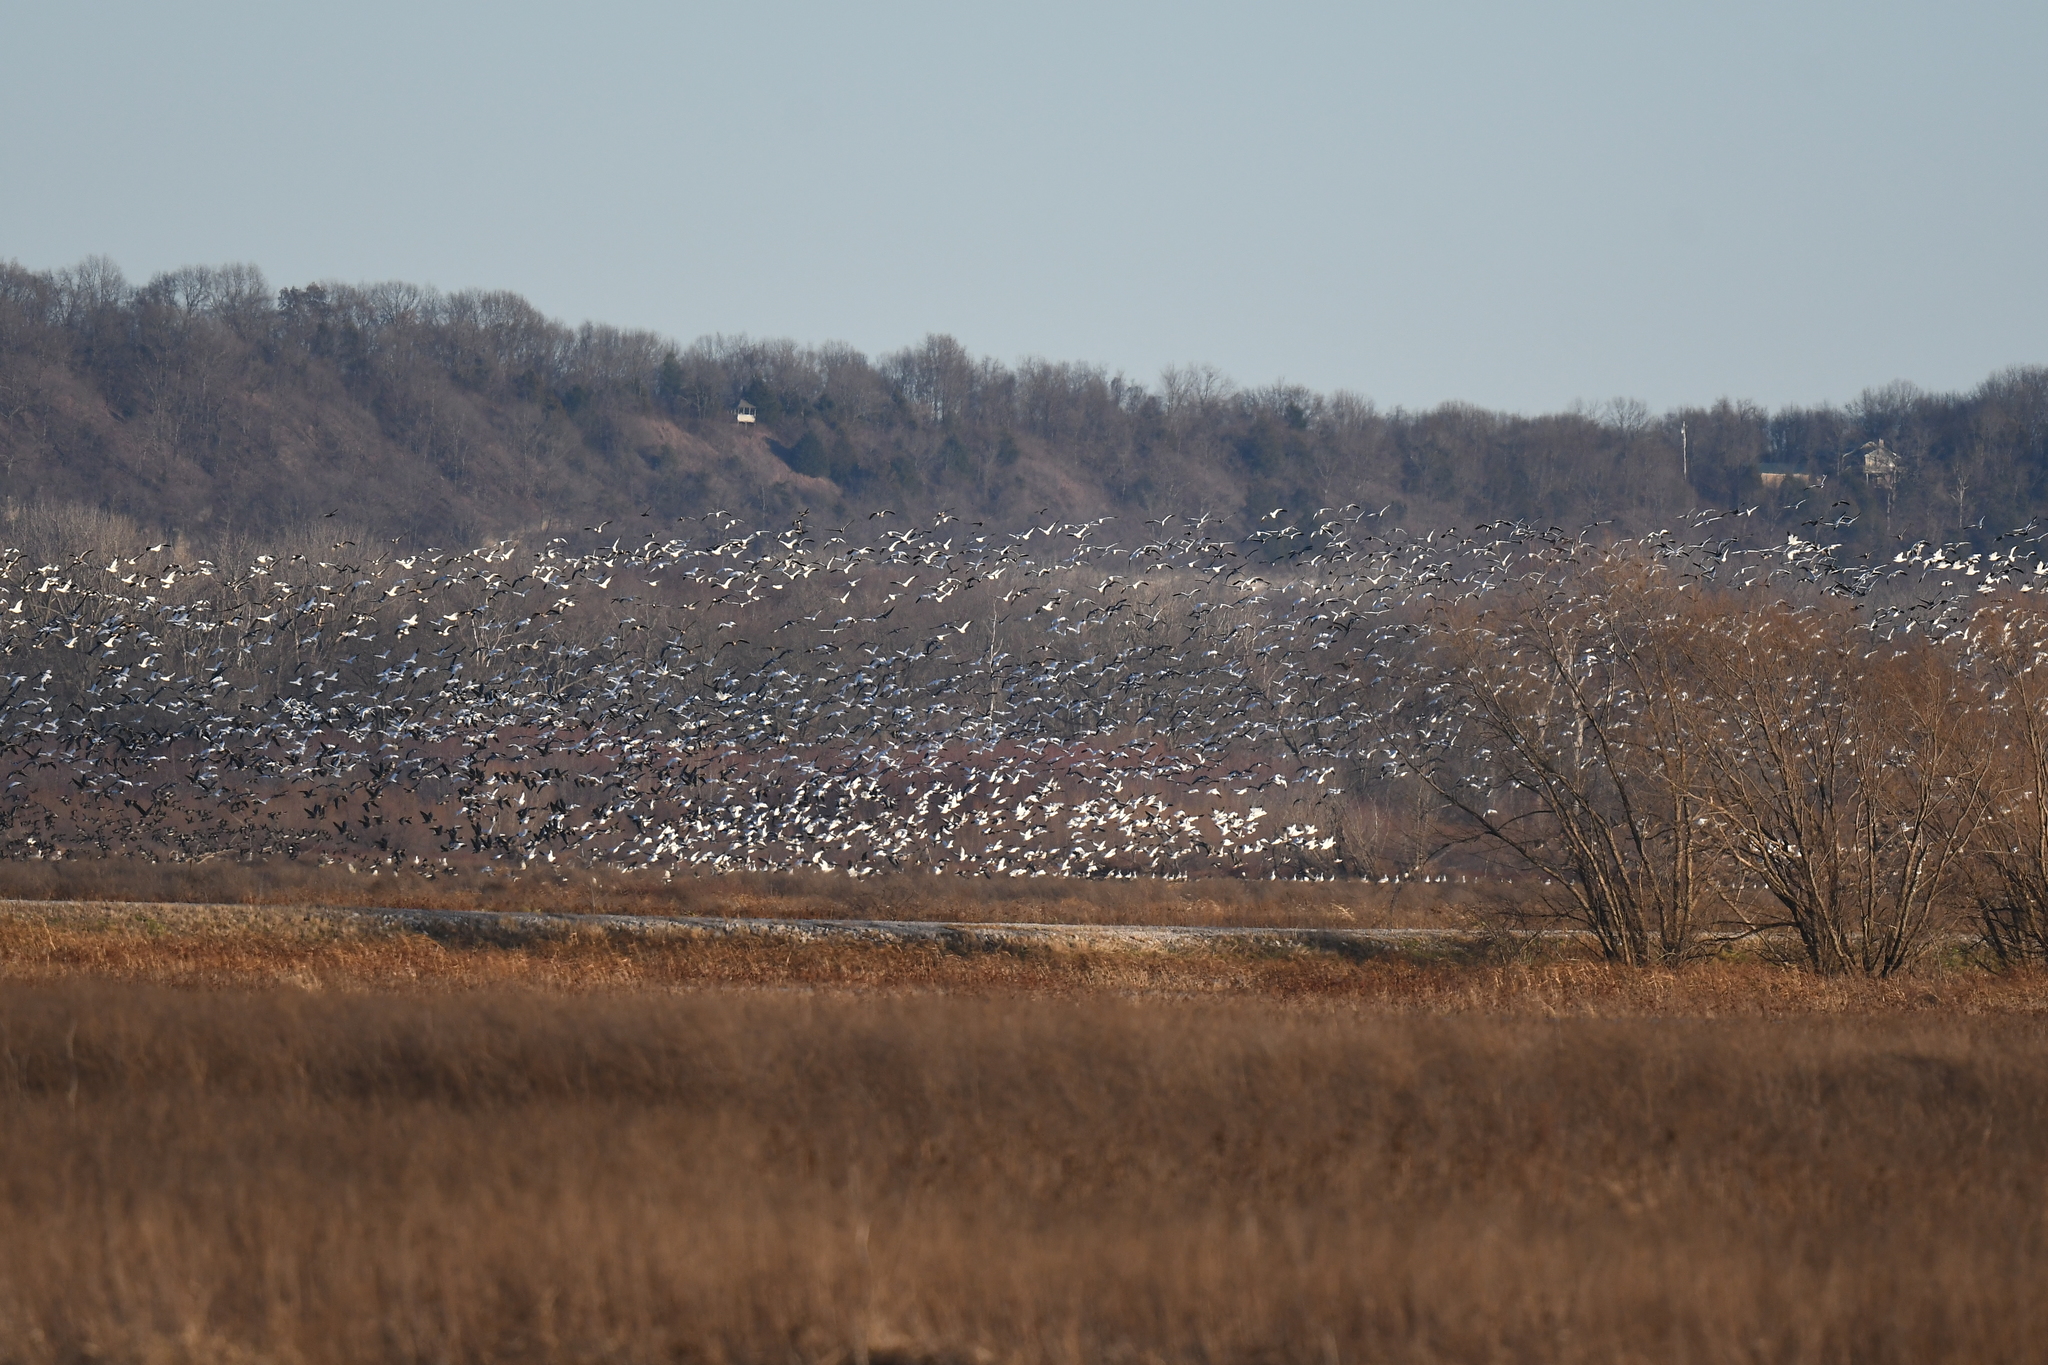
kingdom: Animalia
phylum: Chordata
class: Aves
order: Anseriformes
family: Anatidae
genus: Anser
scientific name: Anser caerulescens
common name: Snow goose
